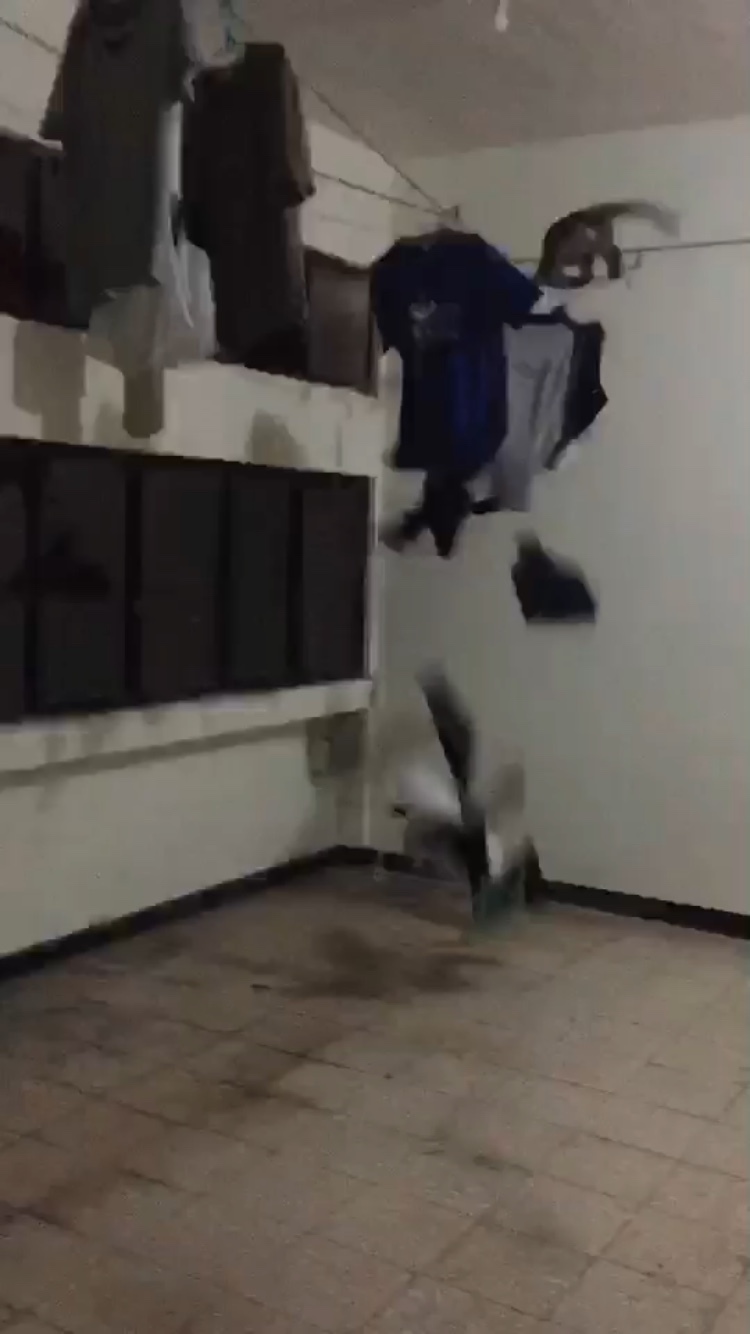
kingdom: Animalia
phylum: Chordata
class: Mammalia
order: Primates
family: Cercopithecidae
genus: Macaca
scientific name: Macaca cyclopis
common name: Formosan rock macaque
